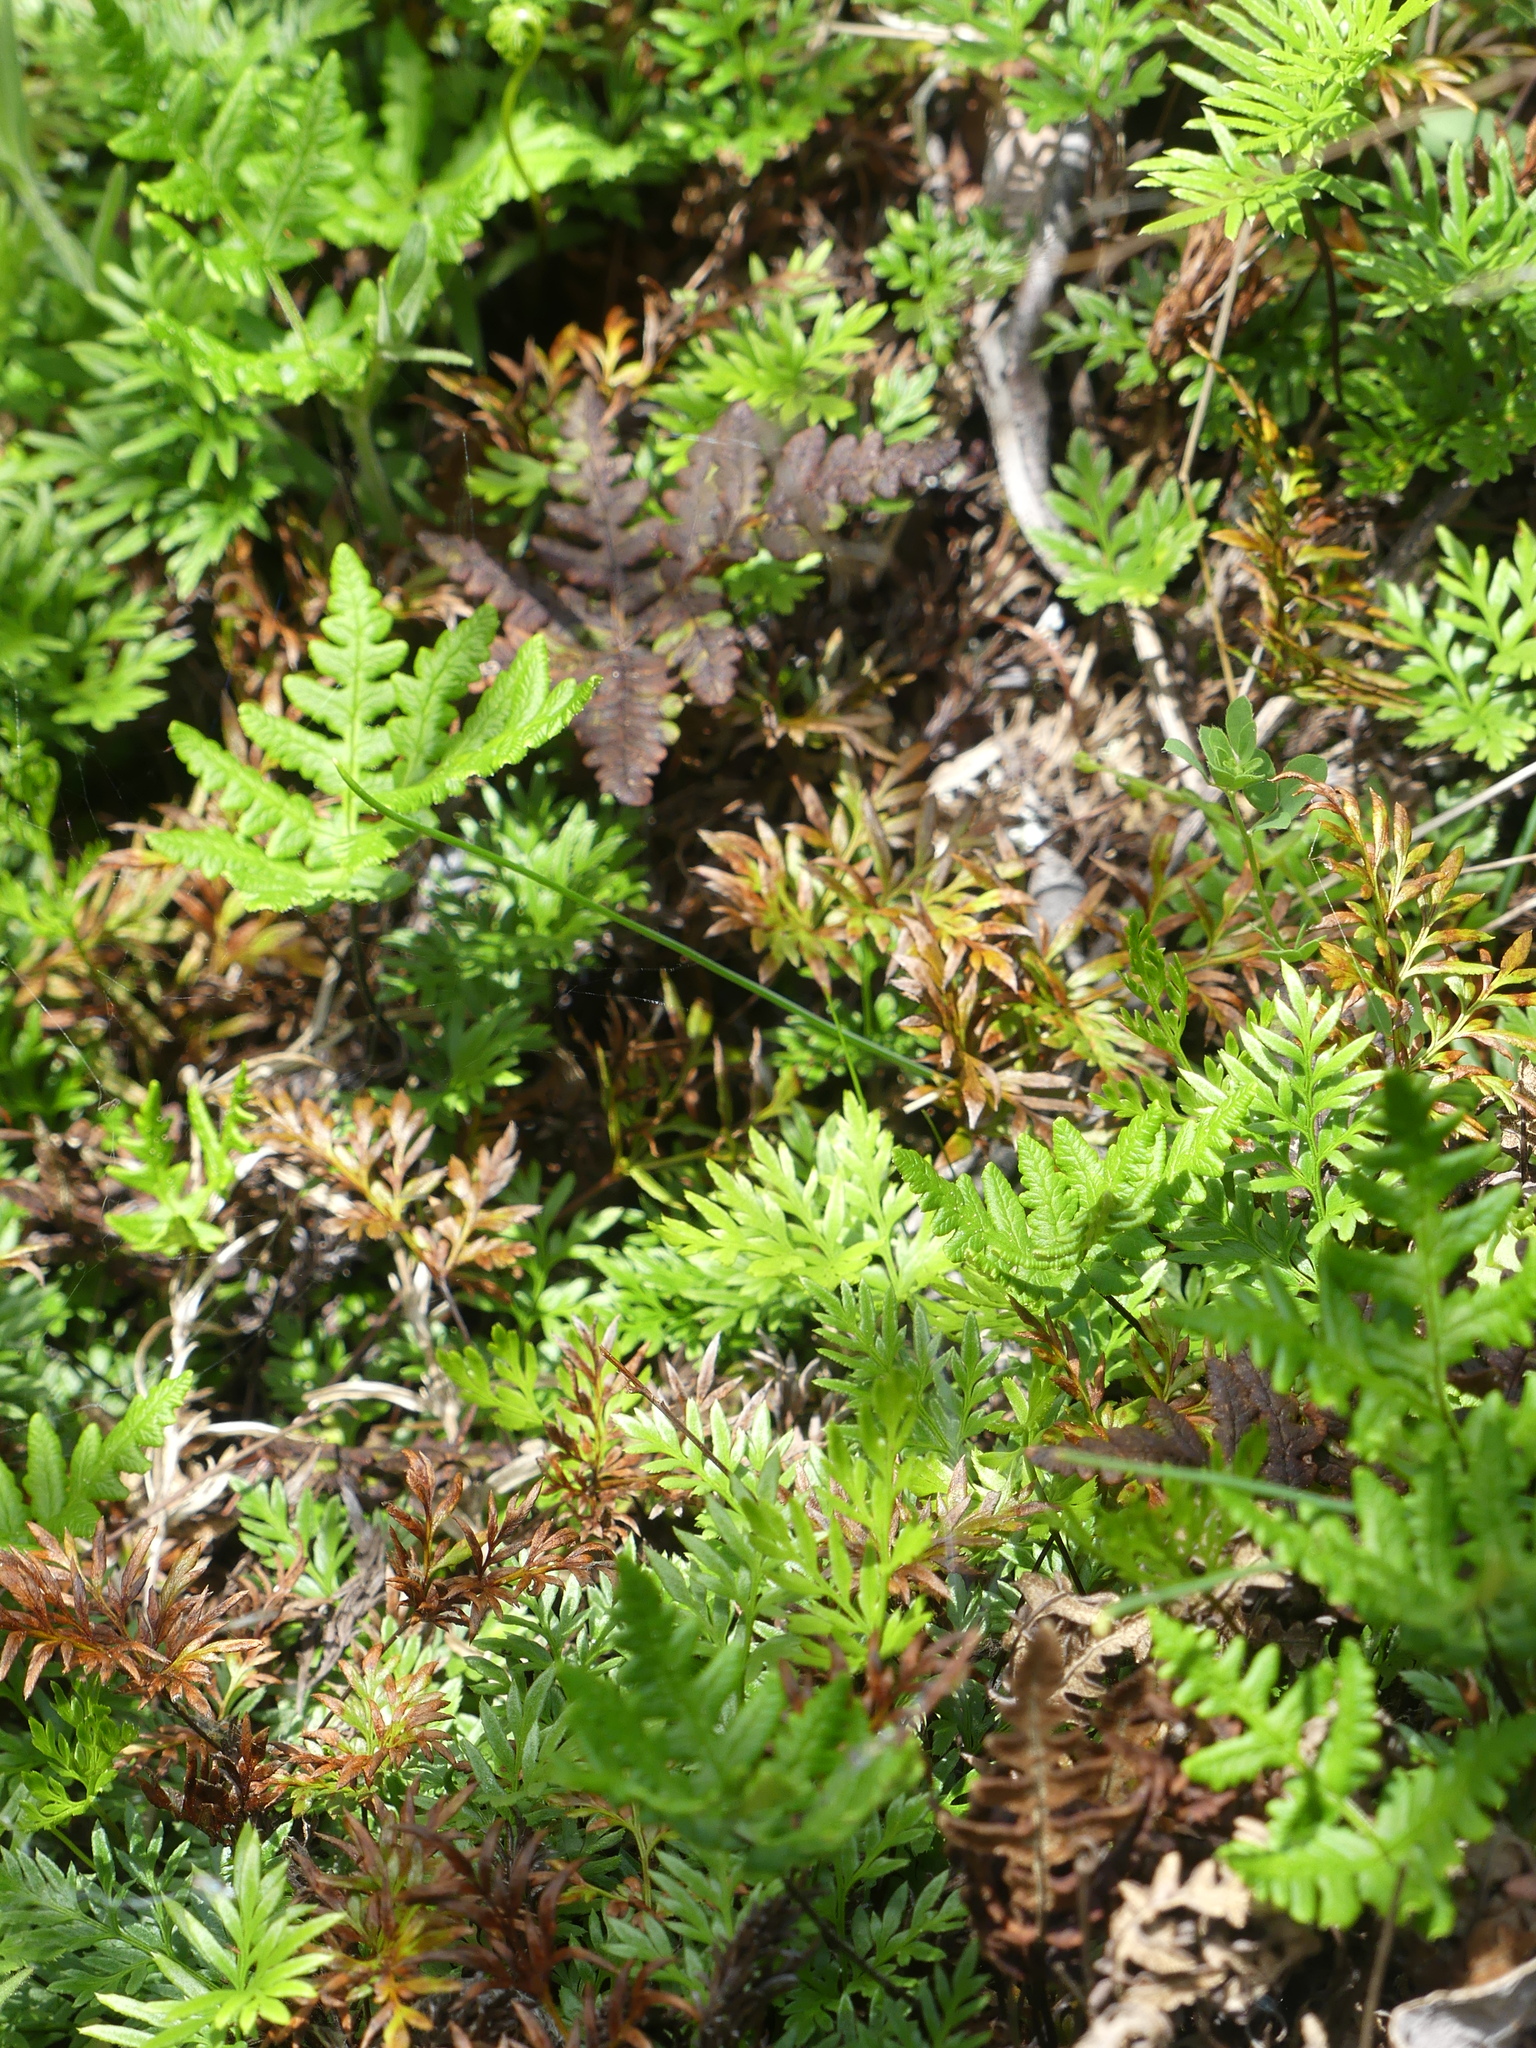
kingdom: Plantae
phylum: Tracheophyta
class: Polypodiopsida
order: Polypodiales
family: Pteridaceae
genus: Pentagramma
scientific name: Pentagramma triangularis
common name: Gold fern
